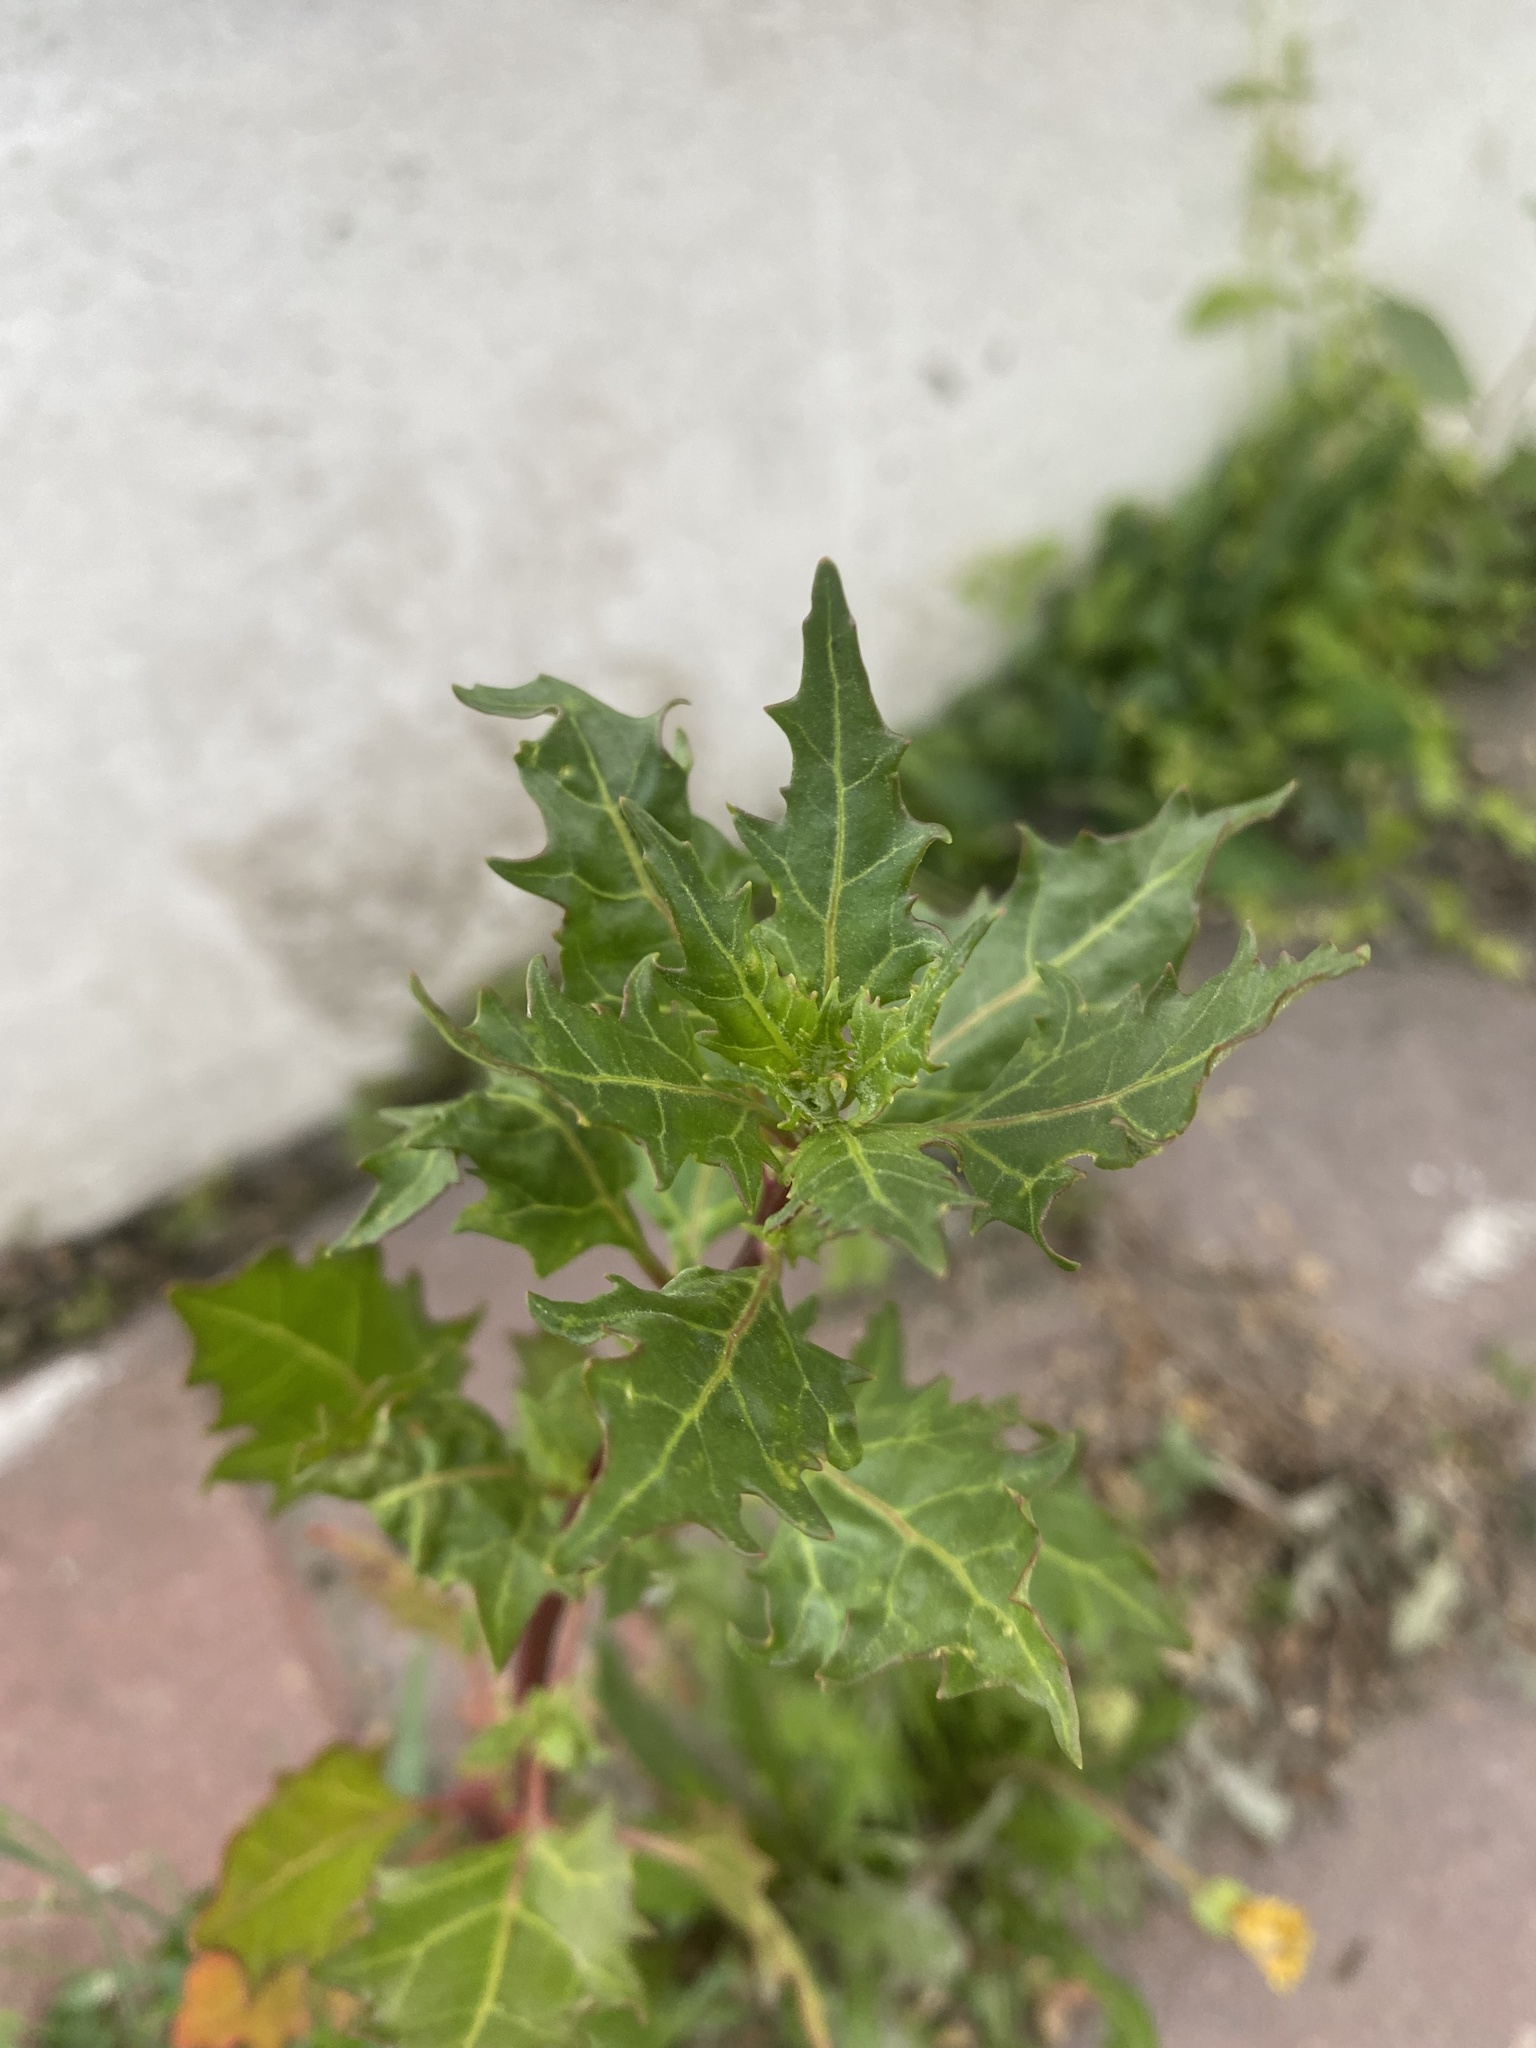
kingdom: Plantae
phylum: Tracheophyta
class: Magnoliopsida
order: Caryophyllales
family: Amaranthaceae
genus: Oxybasis
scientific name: Oxybasis rubra
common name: Red goosefoot
